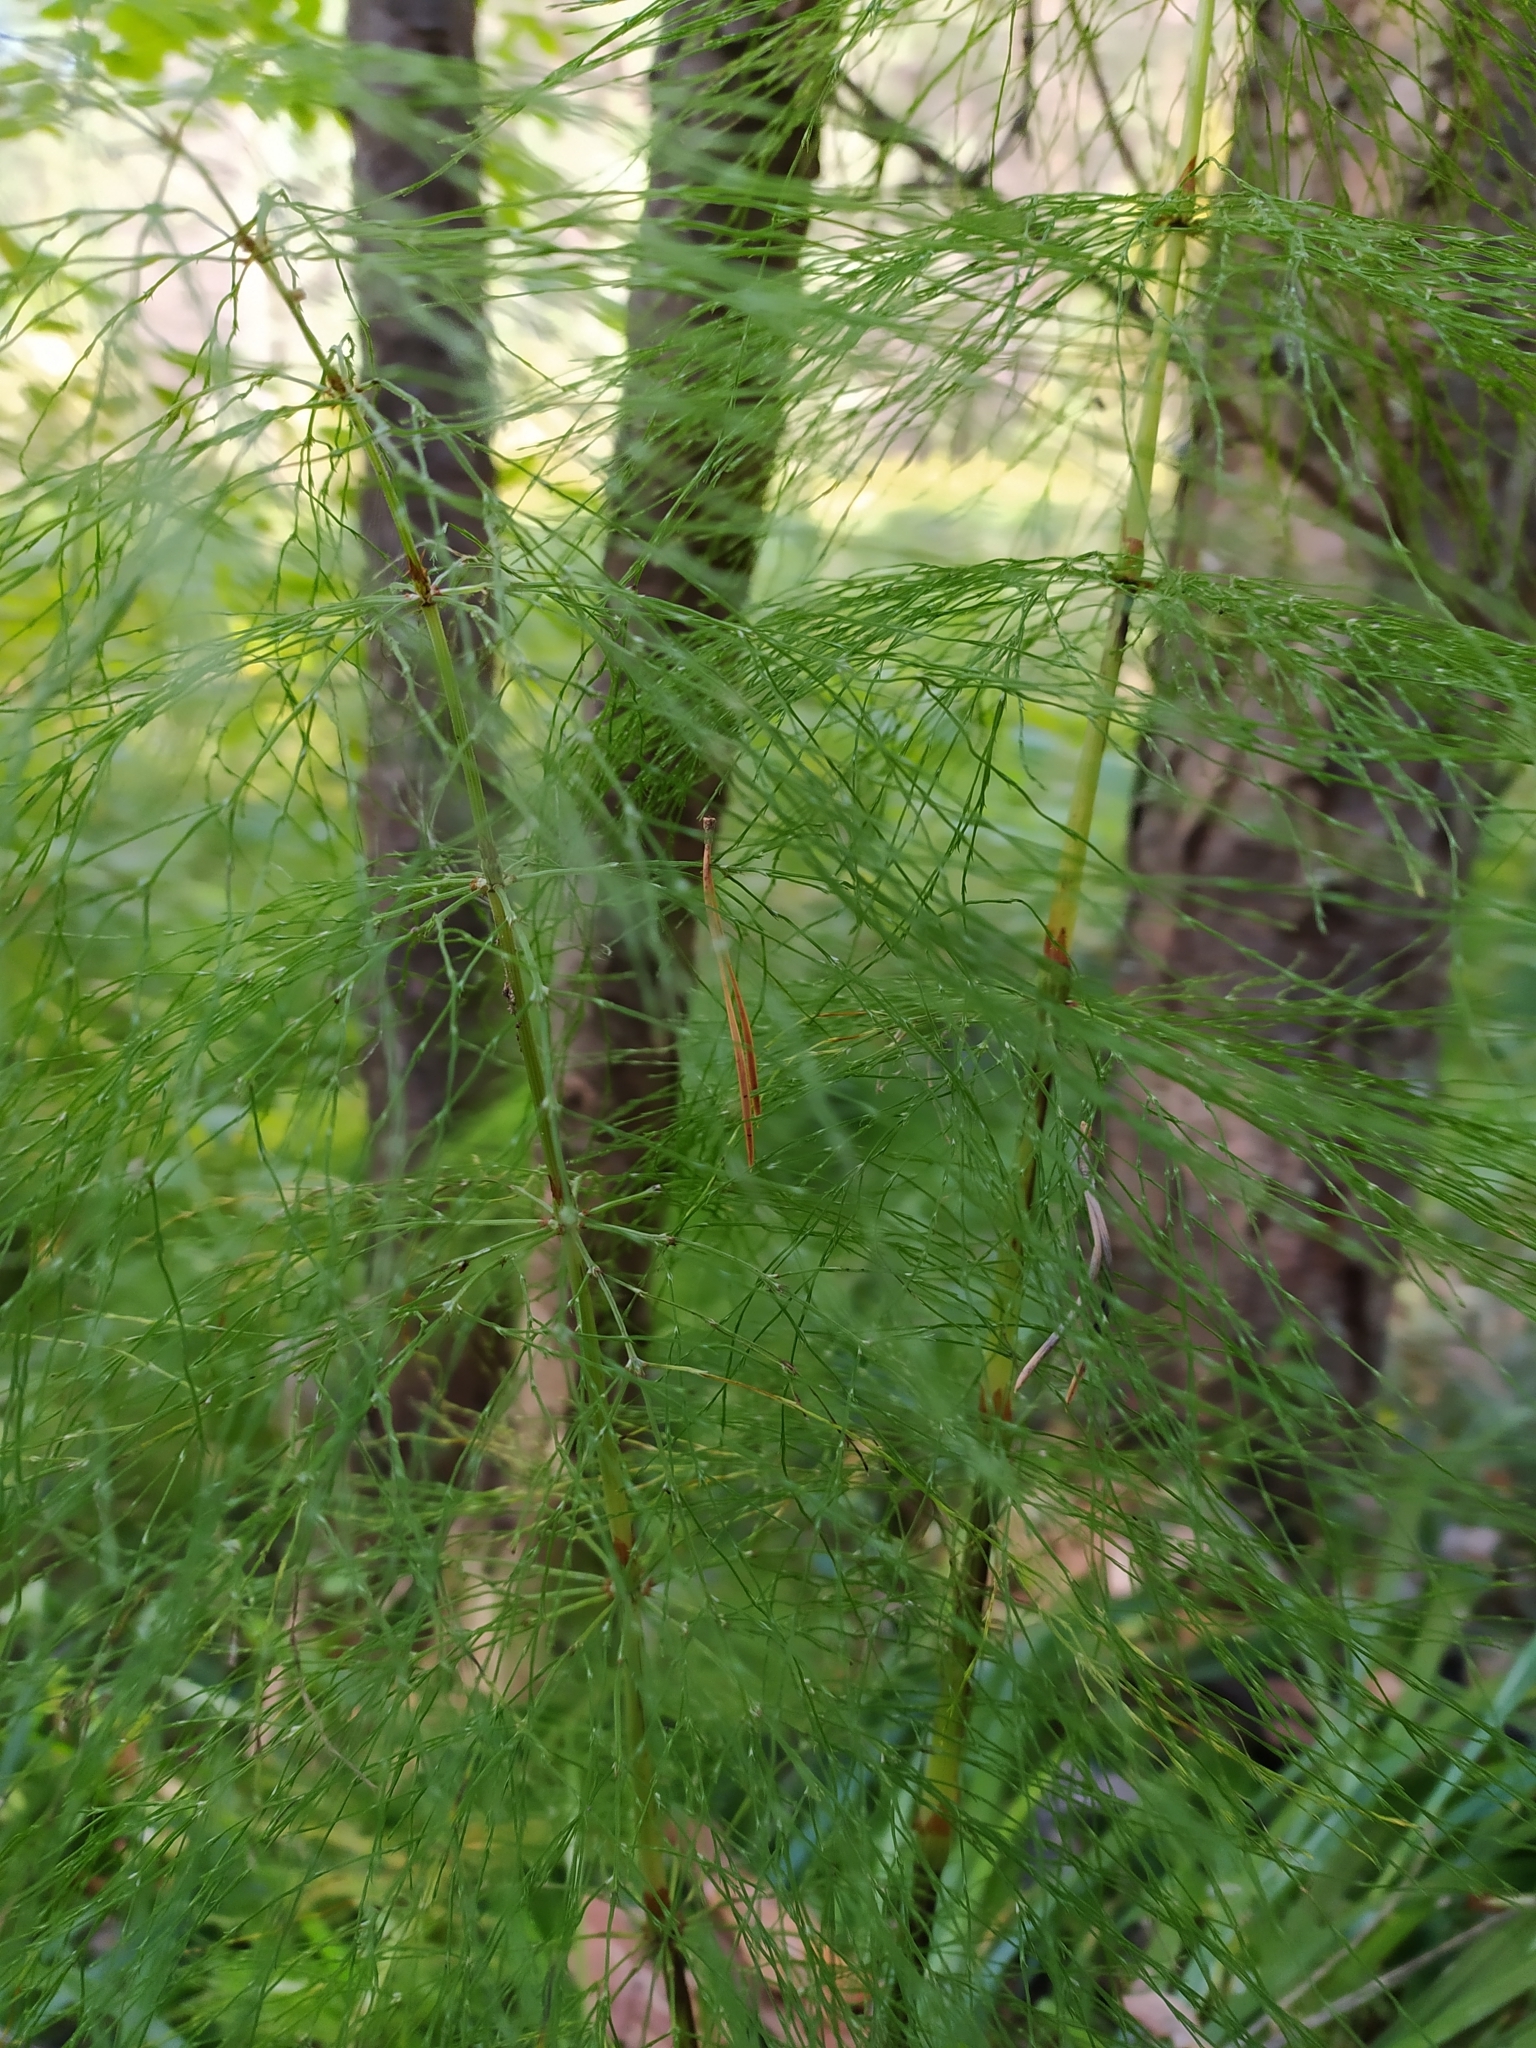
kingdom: Plantae
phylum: Tracheophyta
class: Polypodiopsida
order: Equisetales
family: Equisetaceae
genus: Equisetum
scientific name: Equisetum sylvaticum
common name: Wood horsetail
